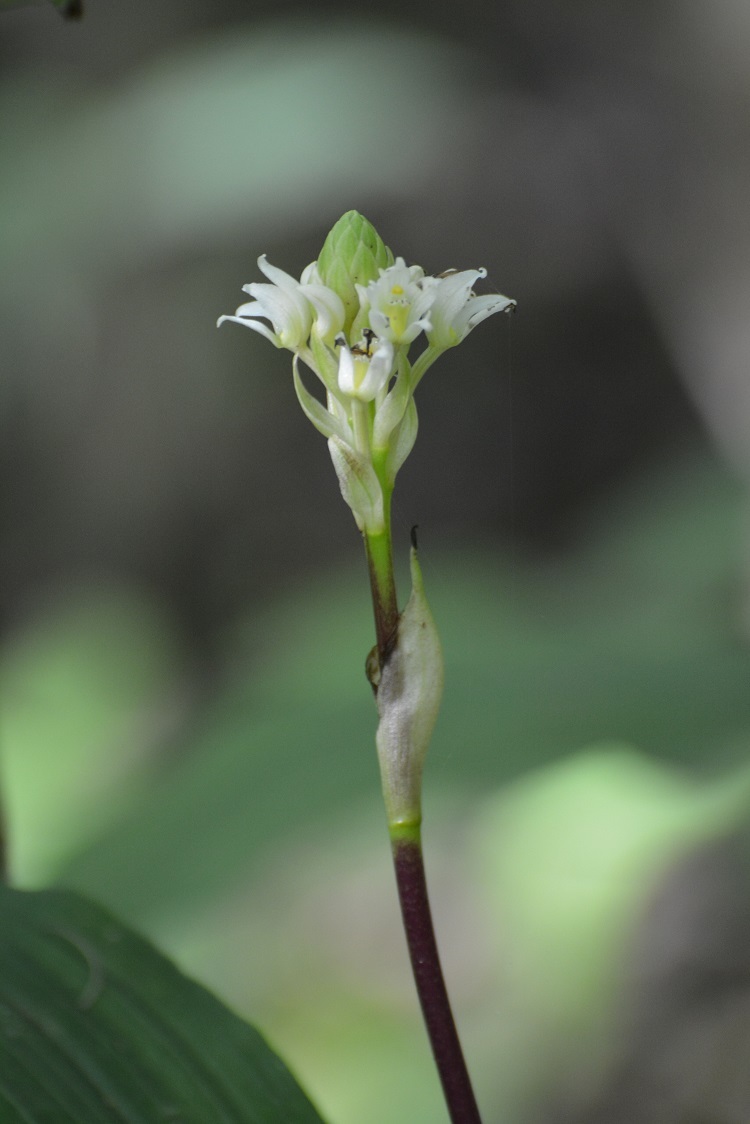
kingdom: Plantae
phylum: Tracheophyta
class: Liliopsida
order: Asparagales
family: Orchidaceae
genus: Govenia
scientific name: Govenia alba
